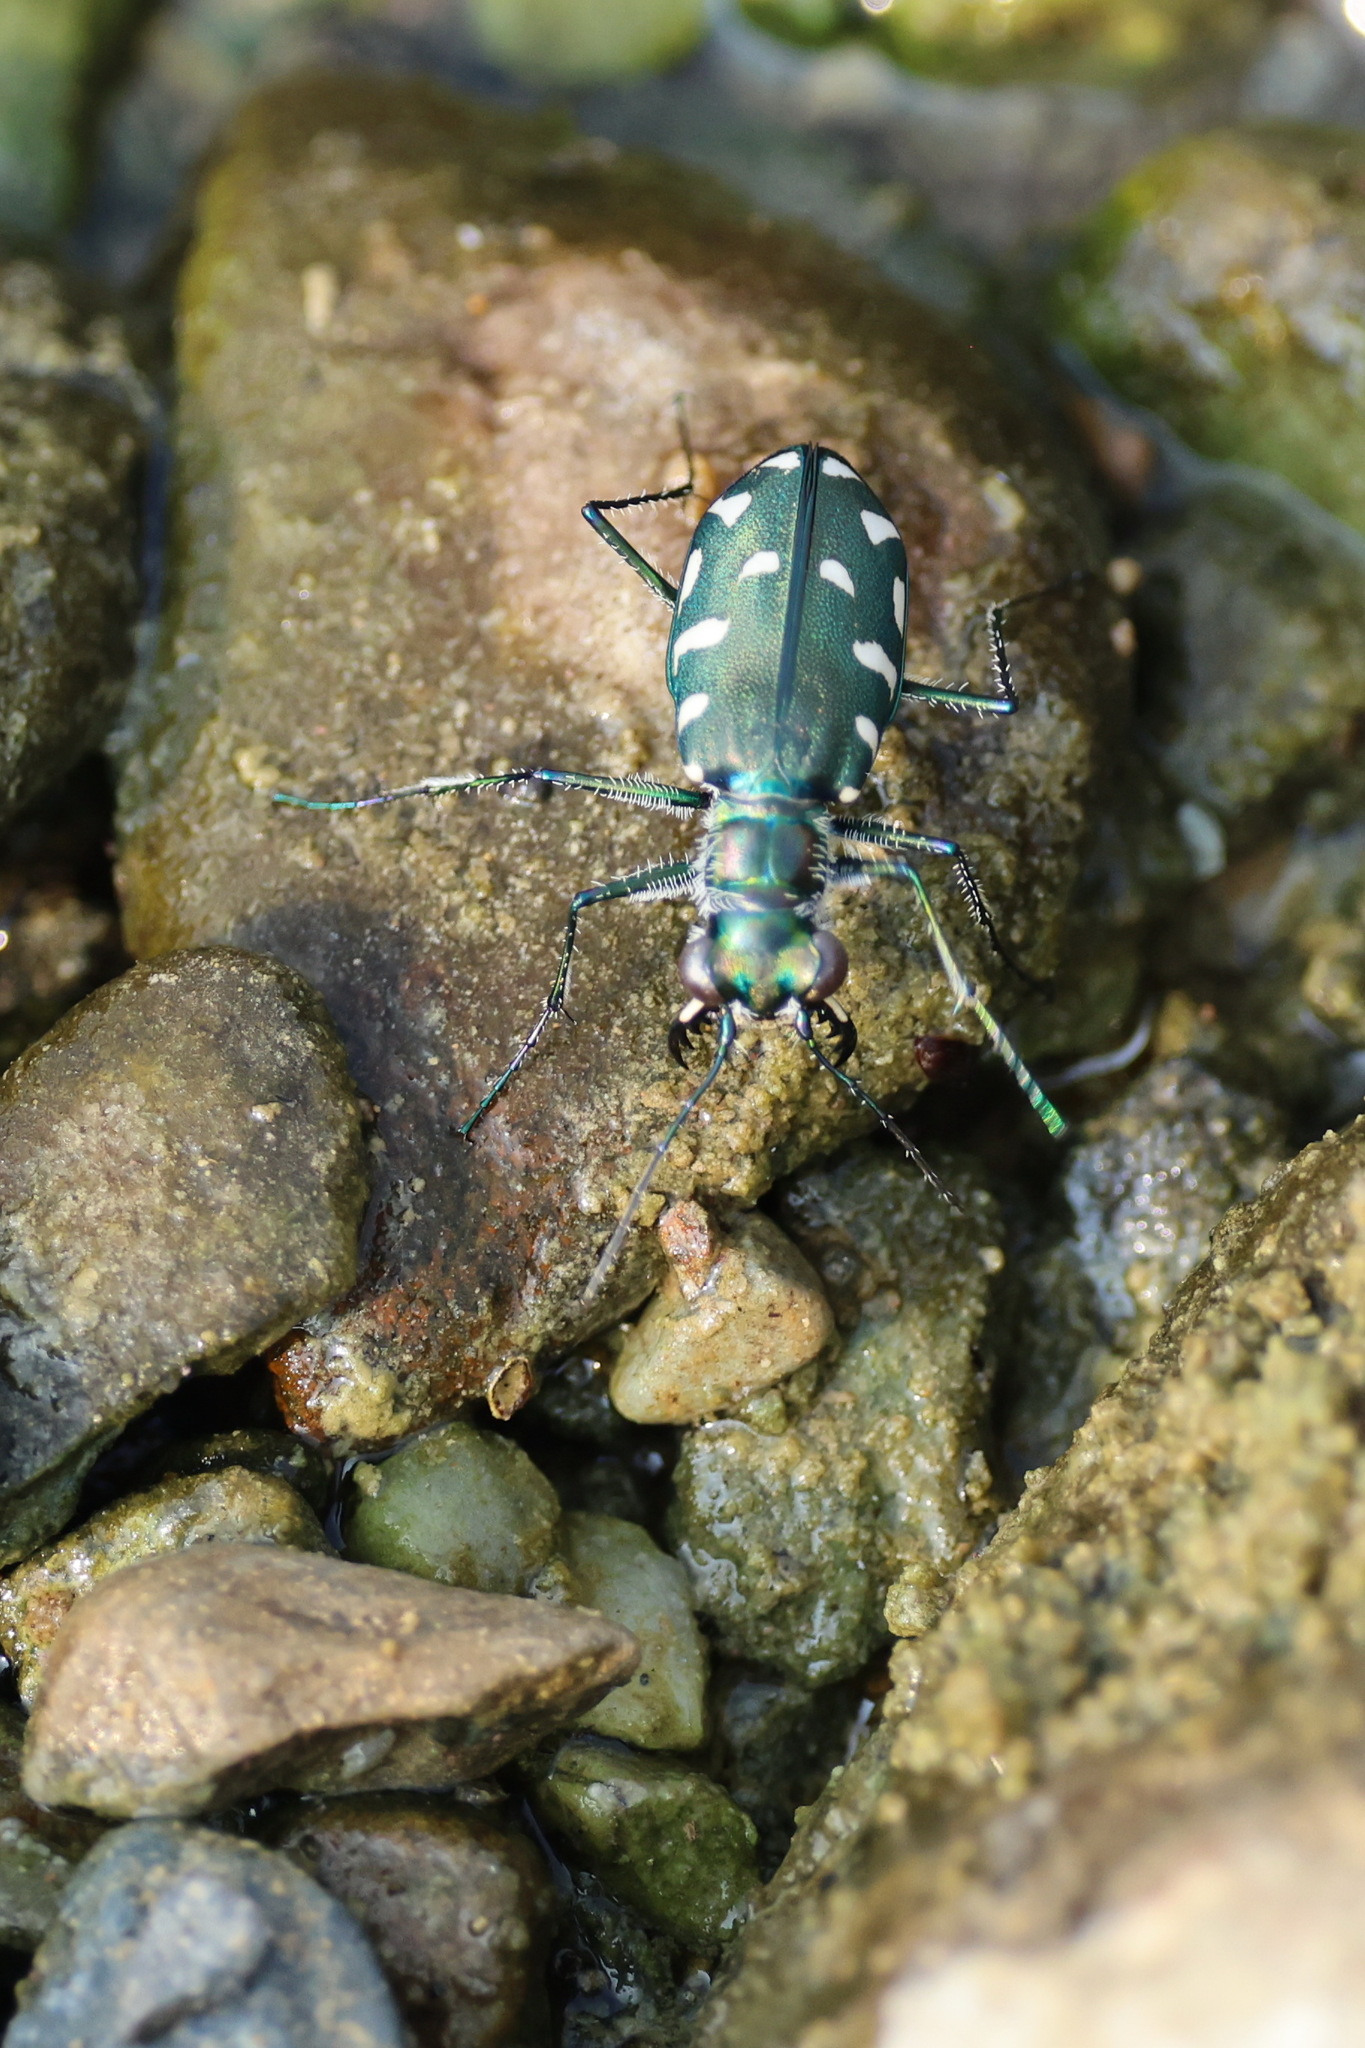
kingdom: Animalia
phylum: Arthropoda
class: Insecta
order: Coleoptera
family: Carabidae
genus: Calomera
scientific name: Calomera alboguttata
